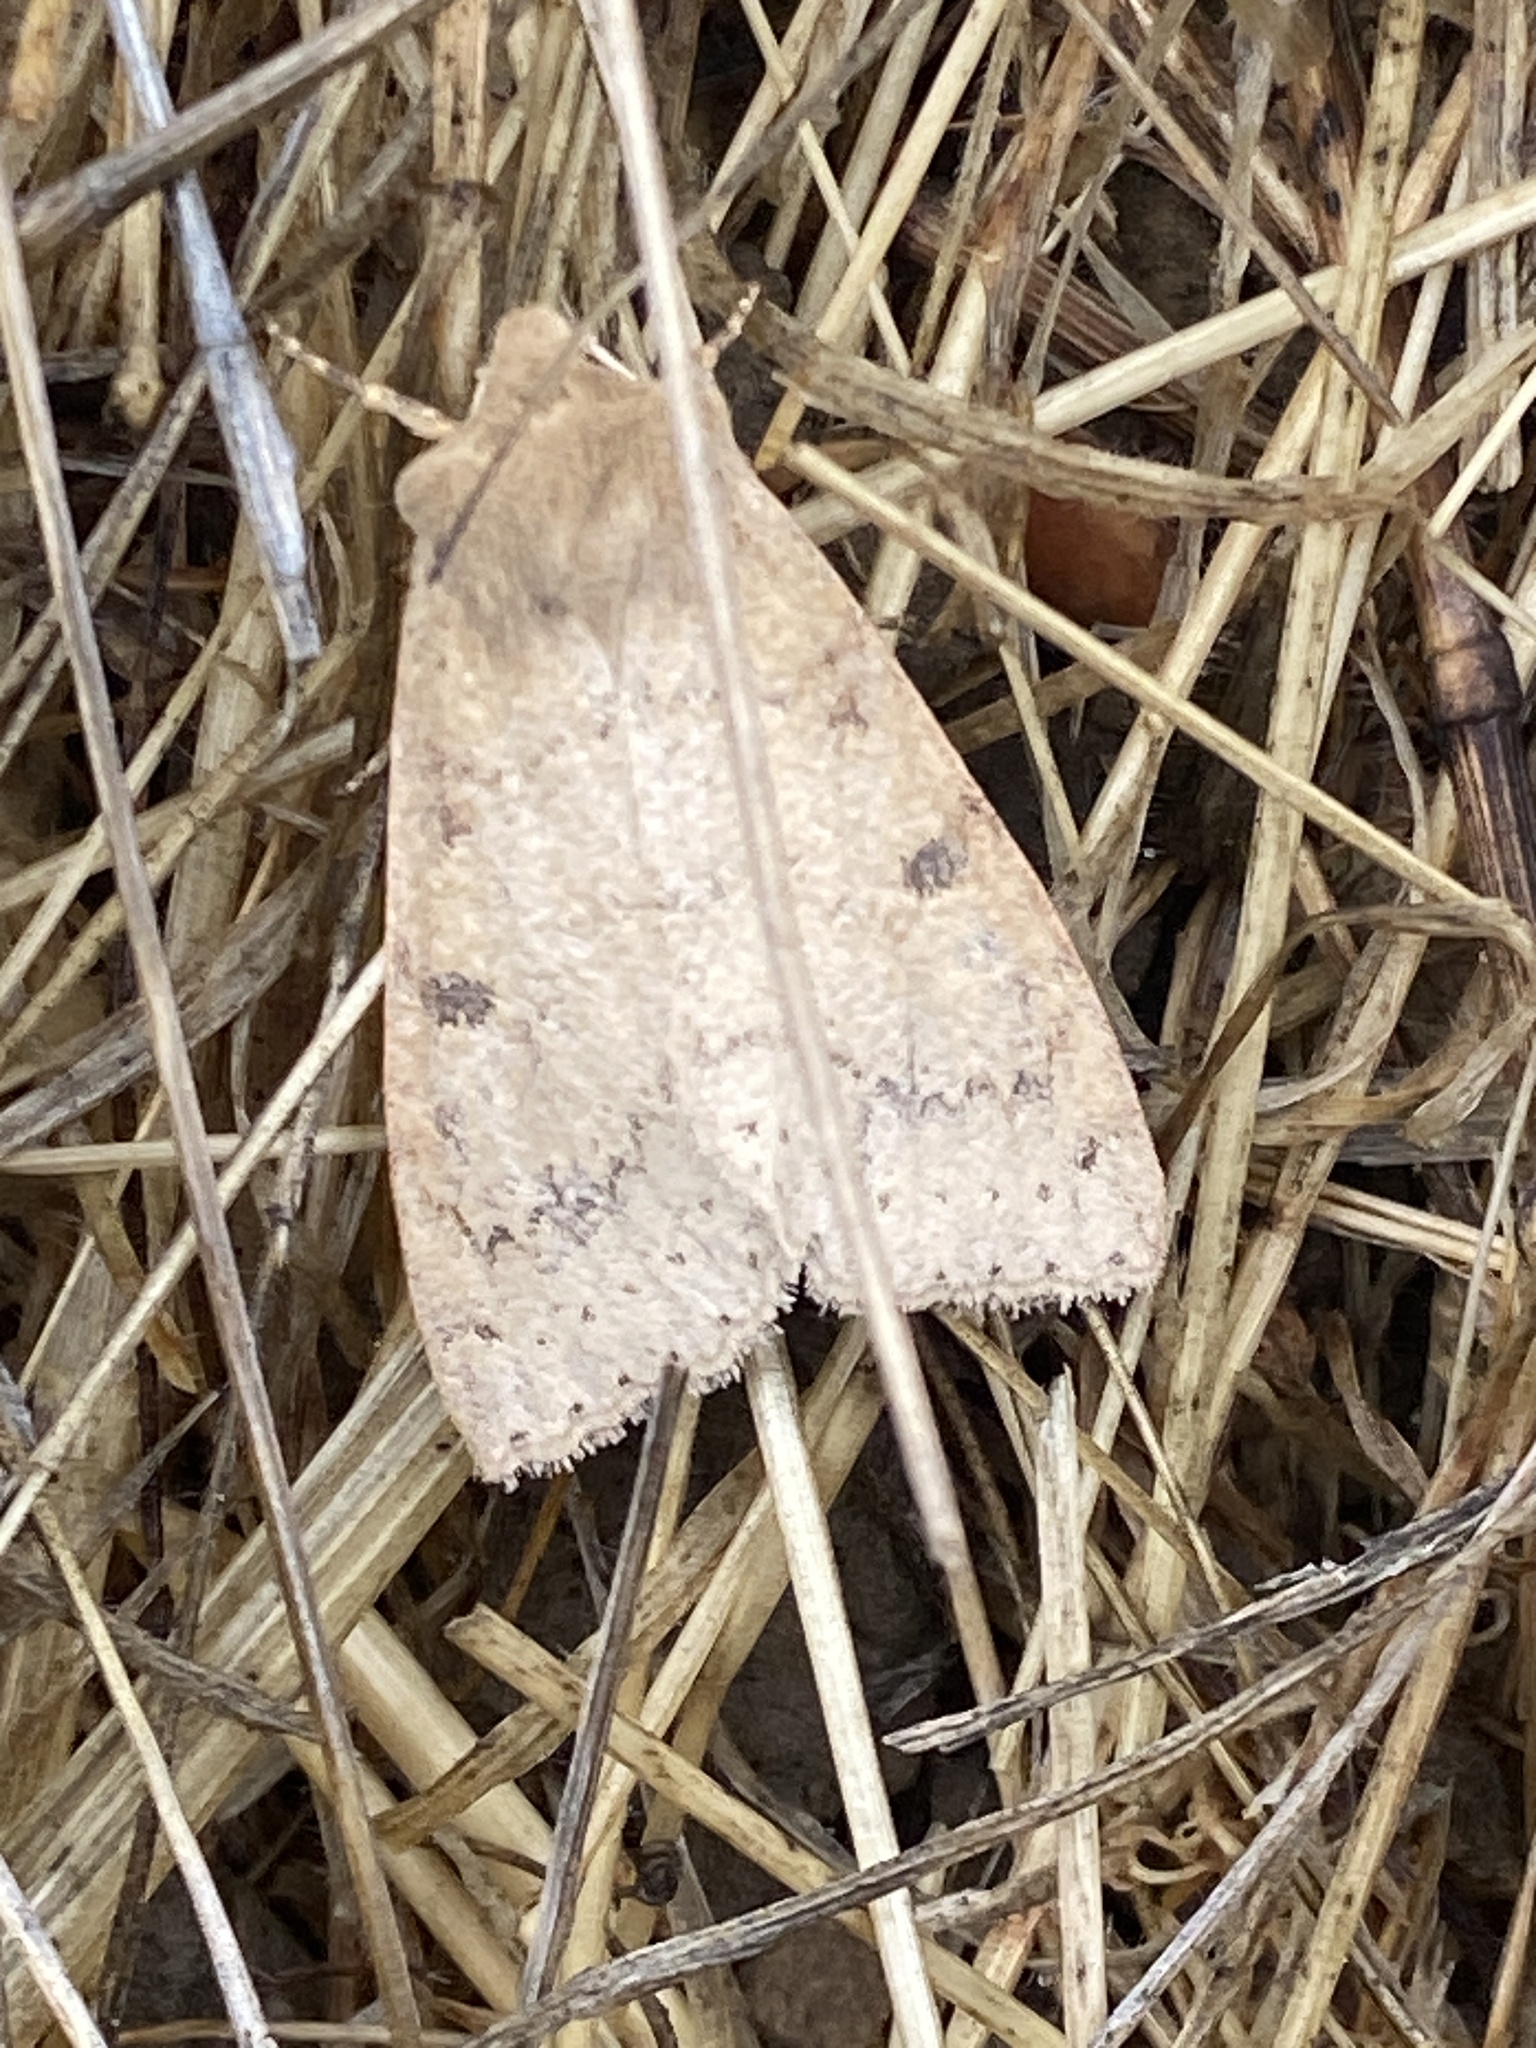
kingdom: Animalia
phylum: Arthropoda
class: Insecta
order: Lepidoptera
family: Noctuidae
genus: Orthosia
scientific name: Orthosia arthrolita
